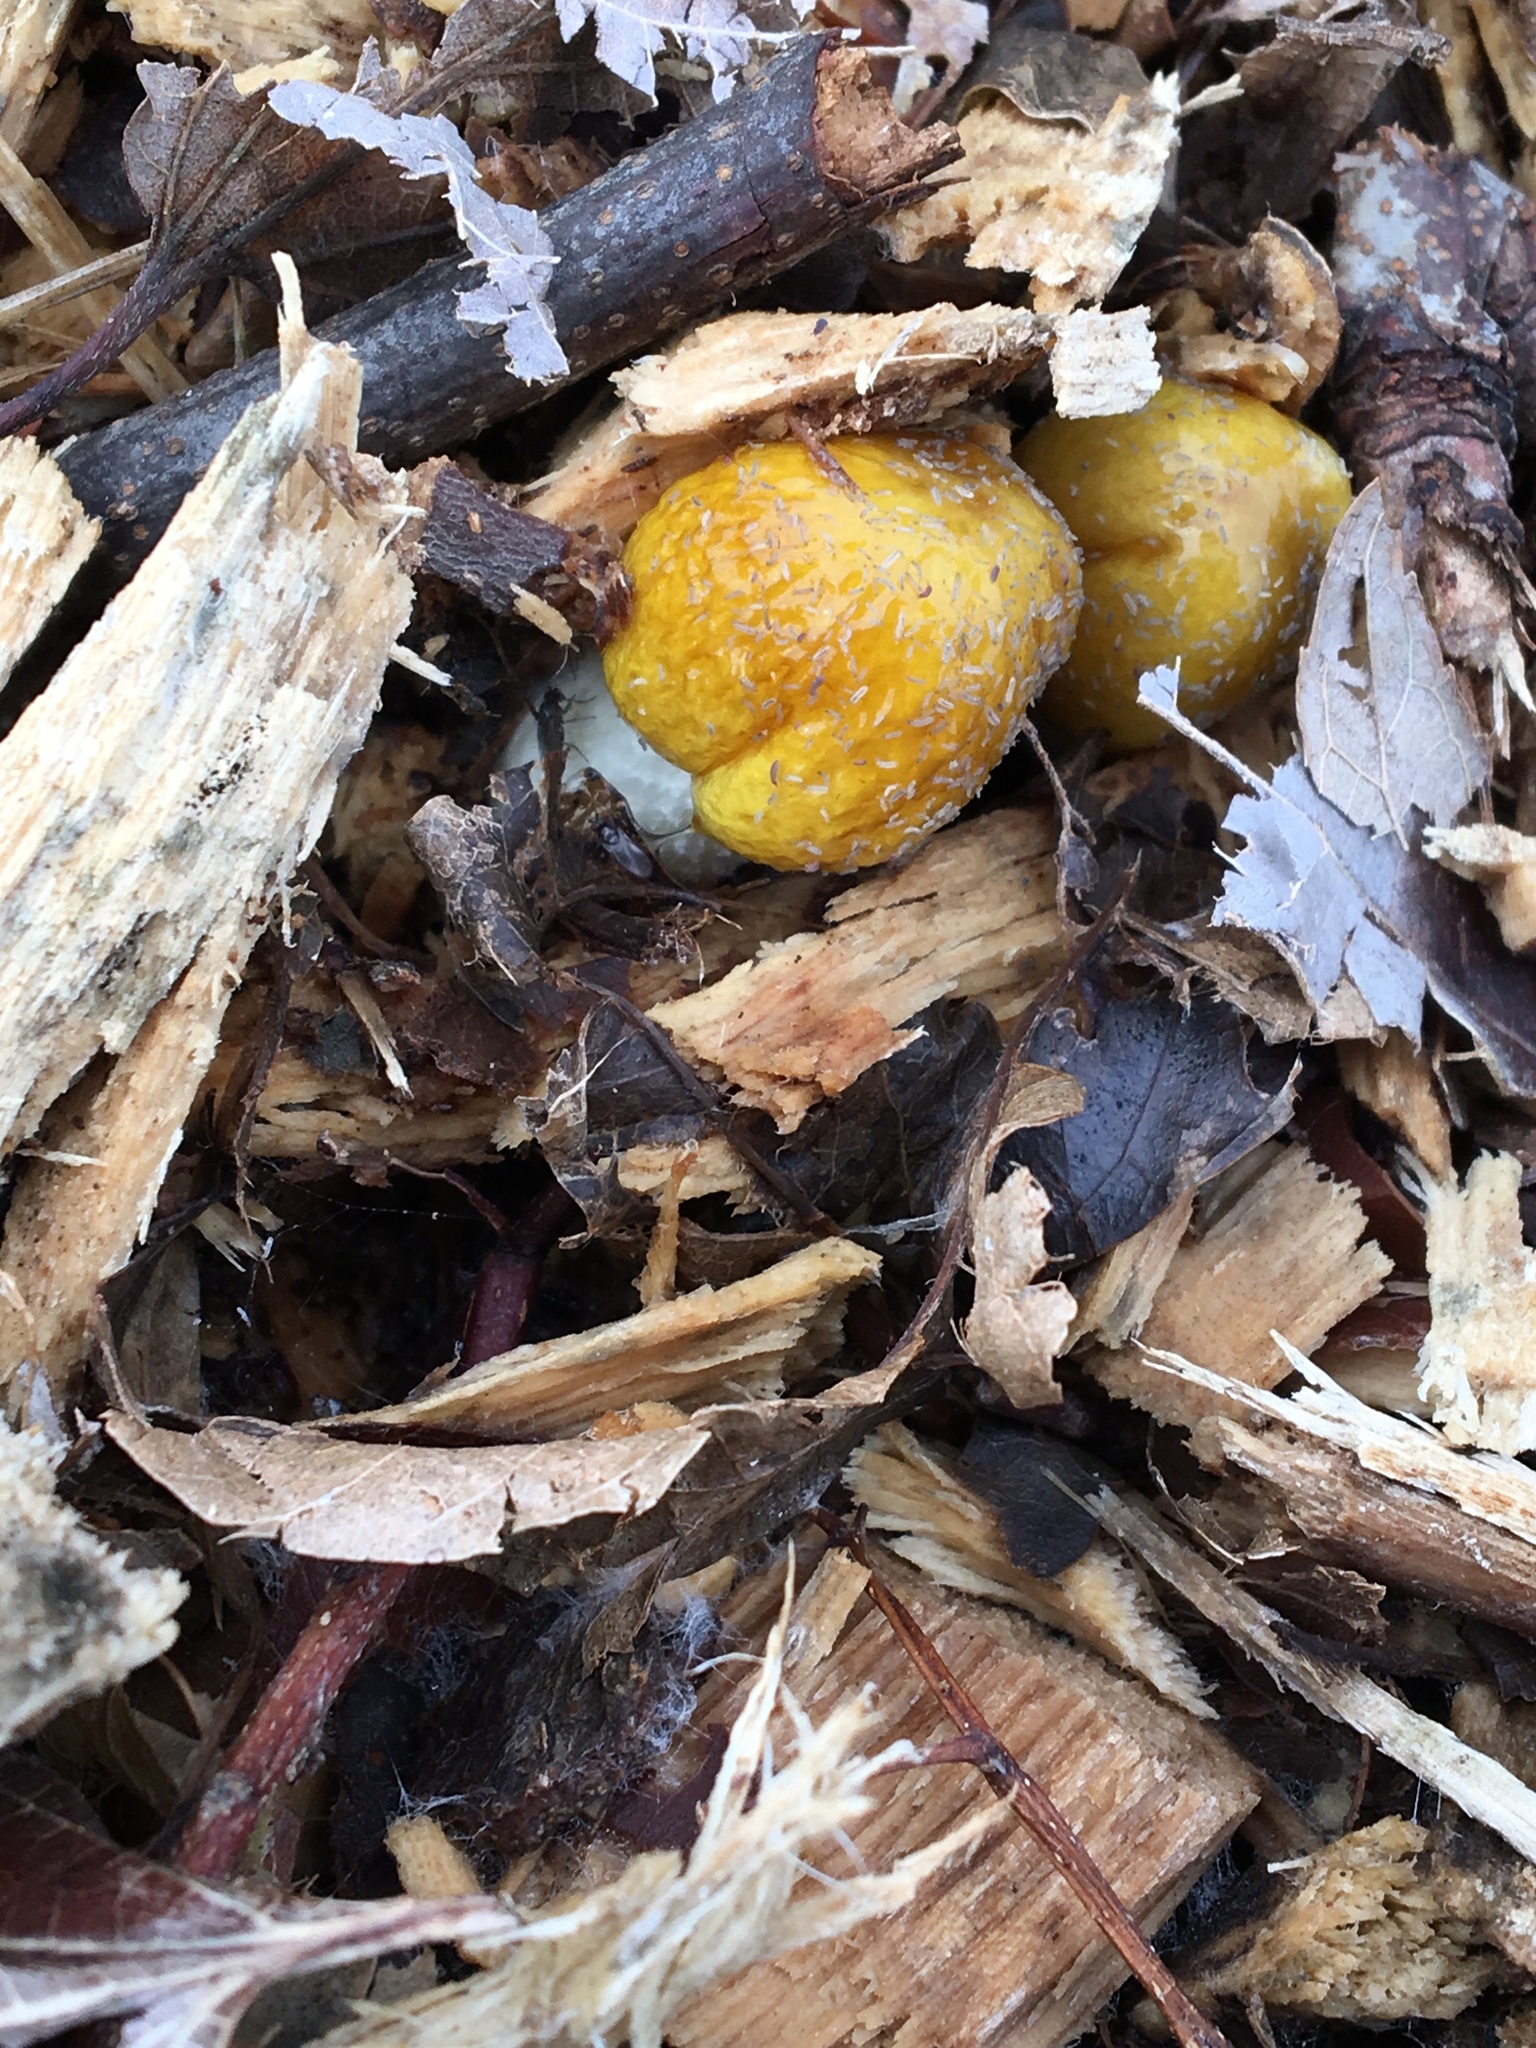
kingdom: Fungi
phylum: Basidiomycota
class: Agaricomycetes
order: Agaricales
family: Bolbitiaceae
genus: Bolbitius
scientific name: Bolbitius titubans
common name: Yellow fieldcap
